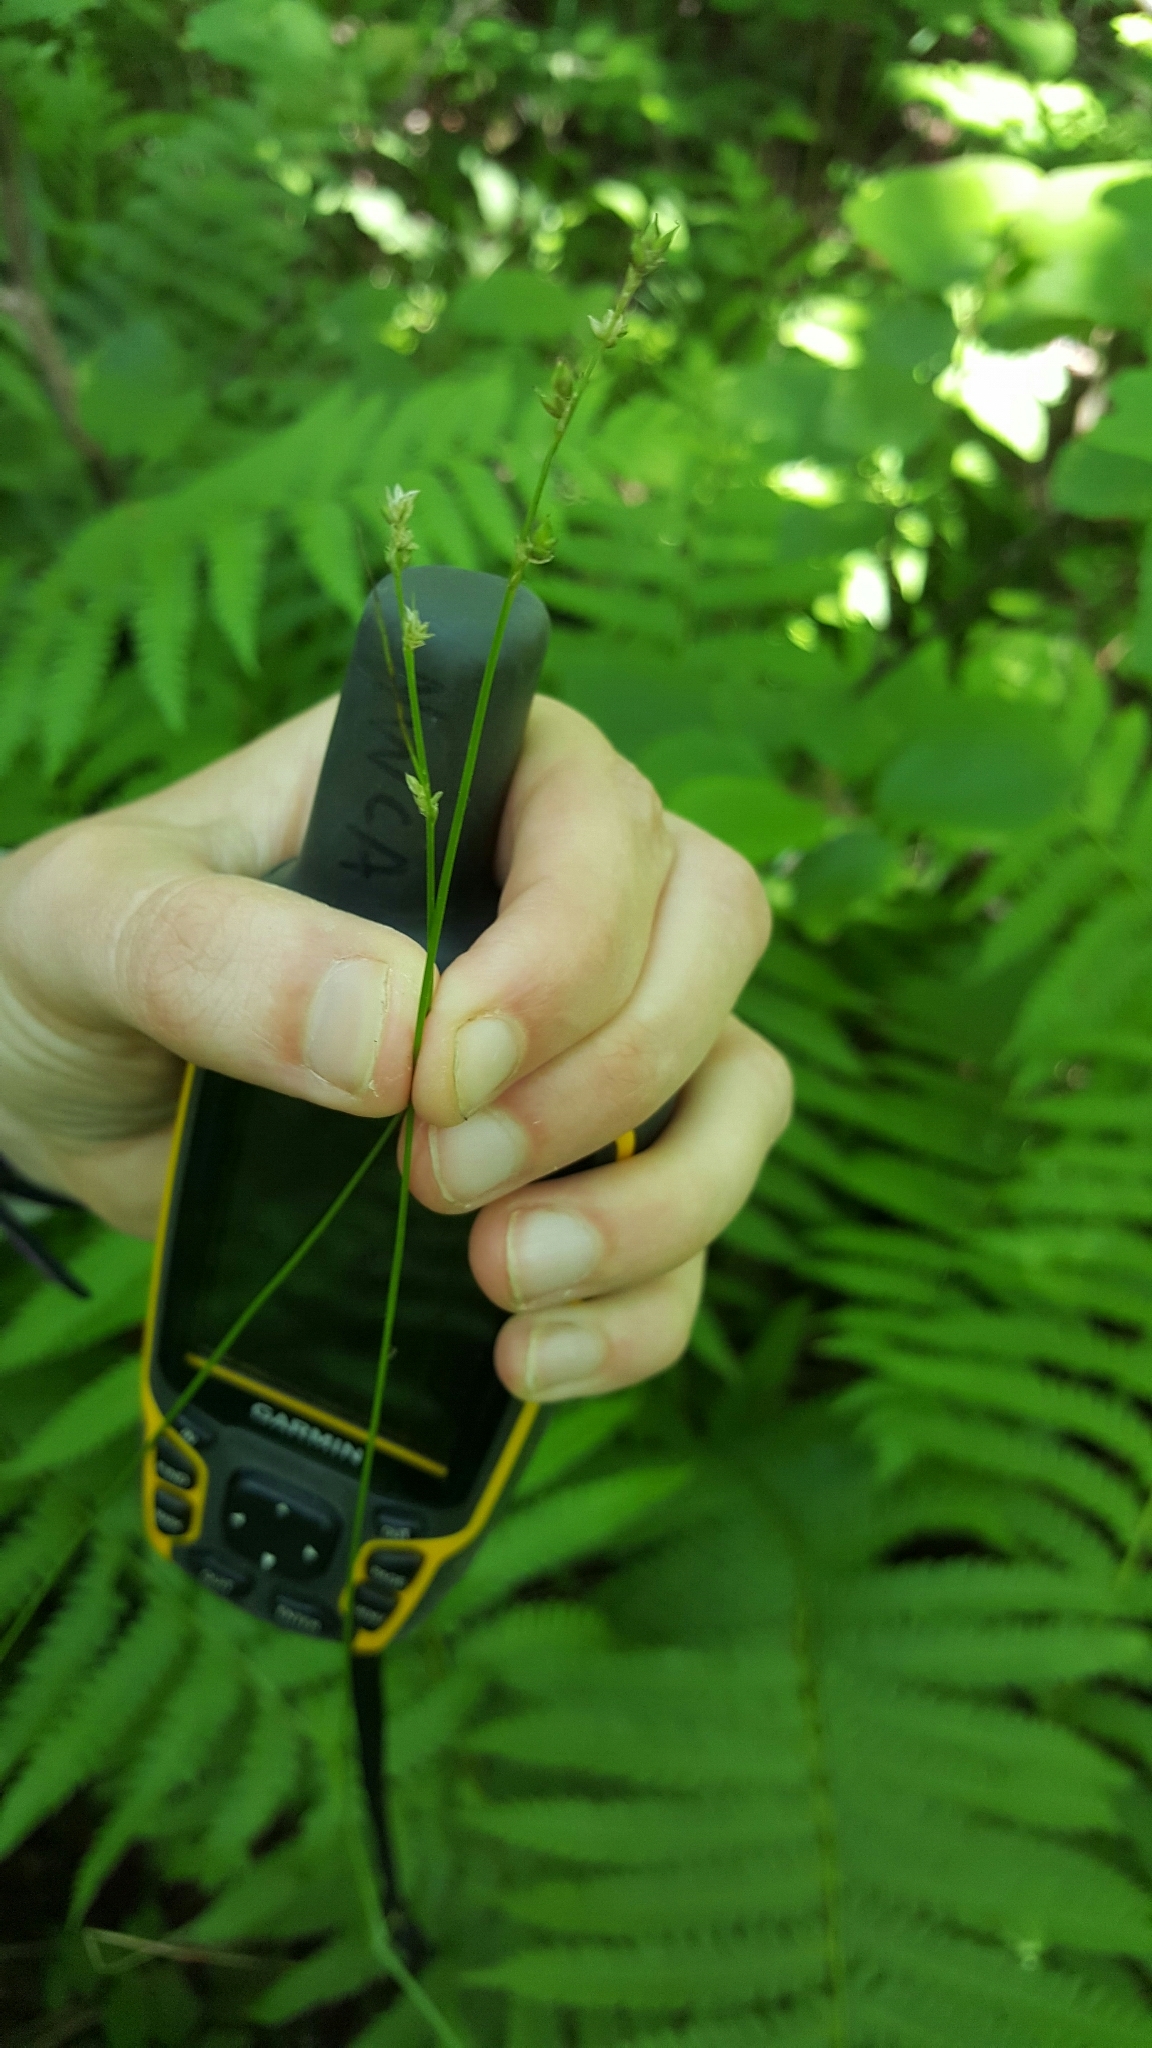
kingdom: Plantae
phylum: Tracheophyta
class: Liliopsida
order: Poales
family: Cyperaceae
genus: Carex
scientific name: Carex interior
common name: Inland sedge
